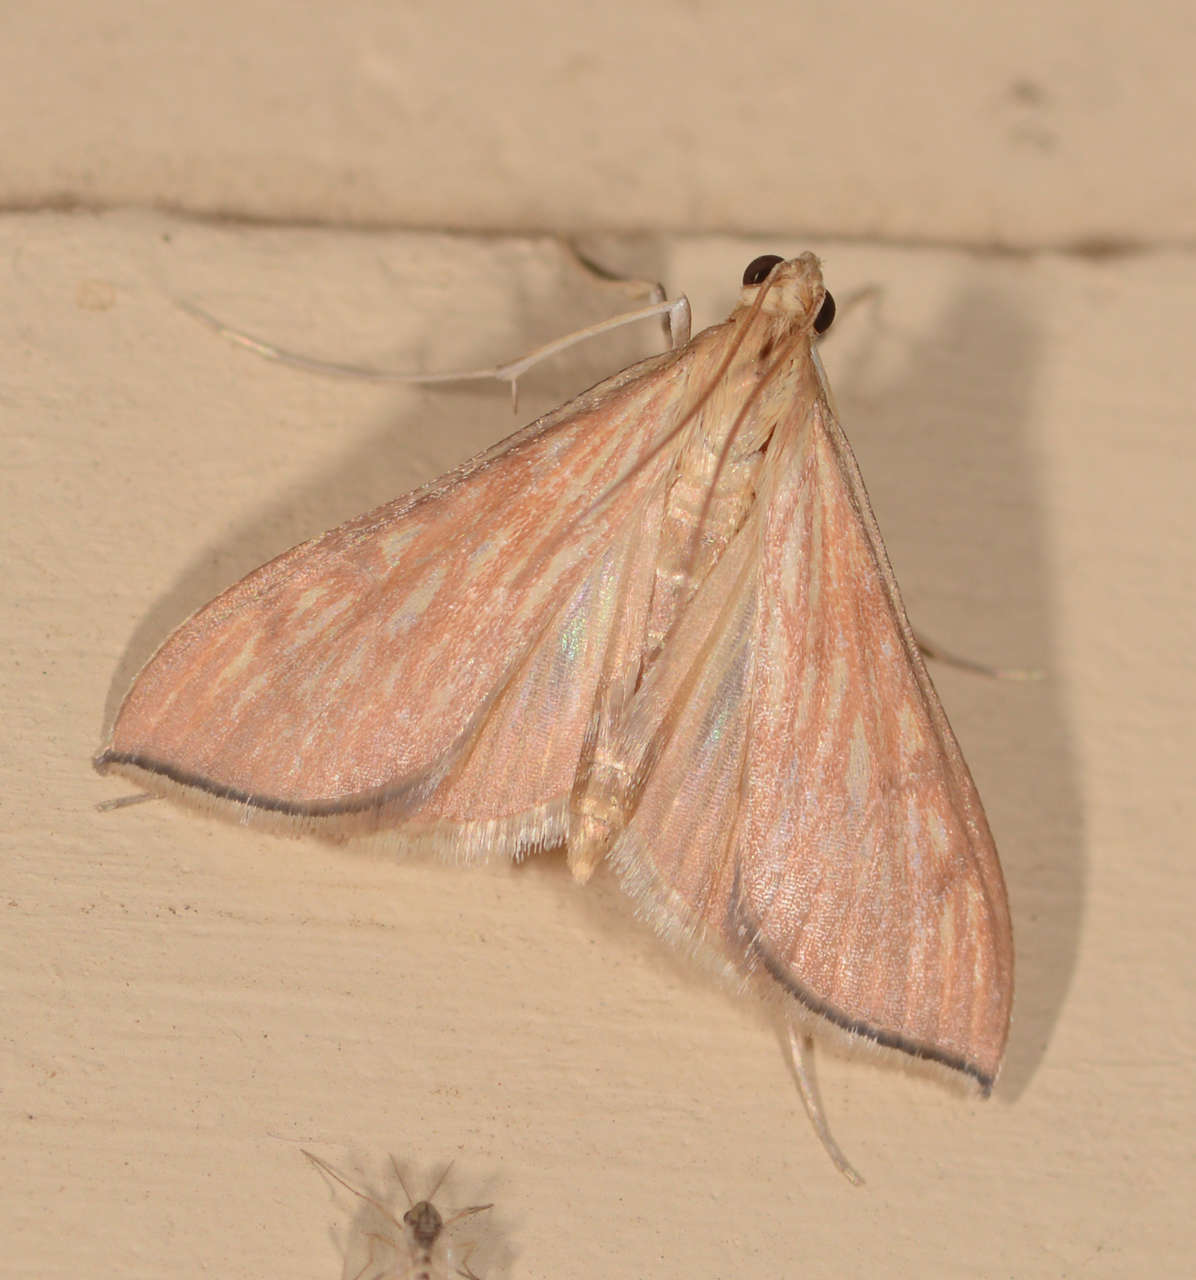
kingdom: Animalia
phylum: Arthropoda
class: Insecta
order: Lepidoptera
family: Crambidae
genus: Antigastra
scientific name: Antigastra catalaunalis
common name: Spanish dot
